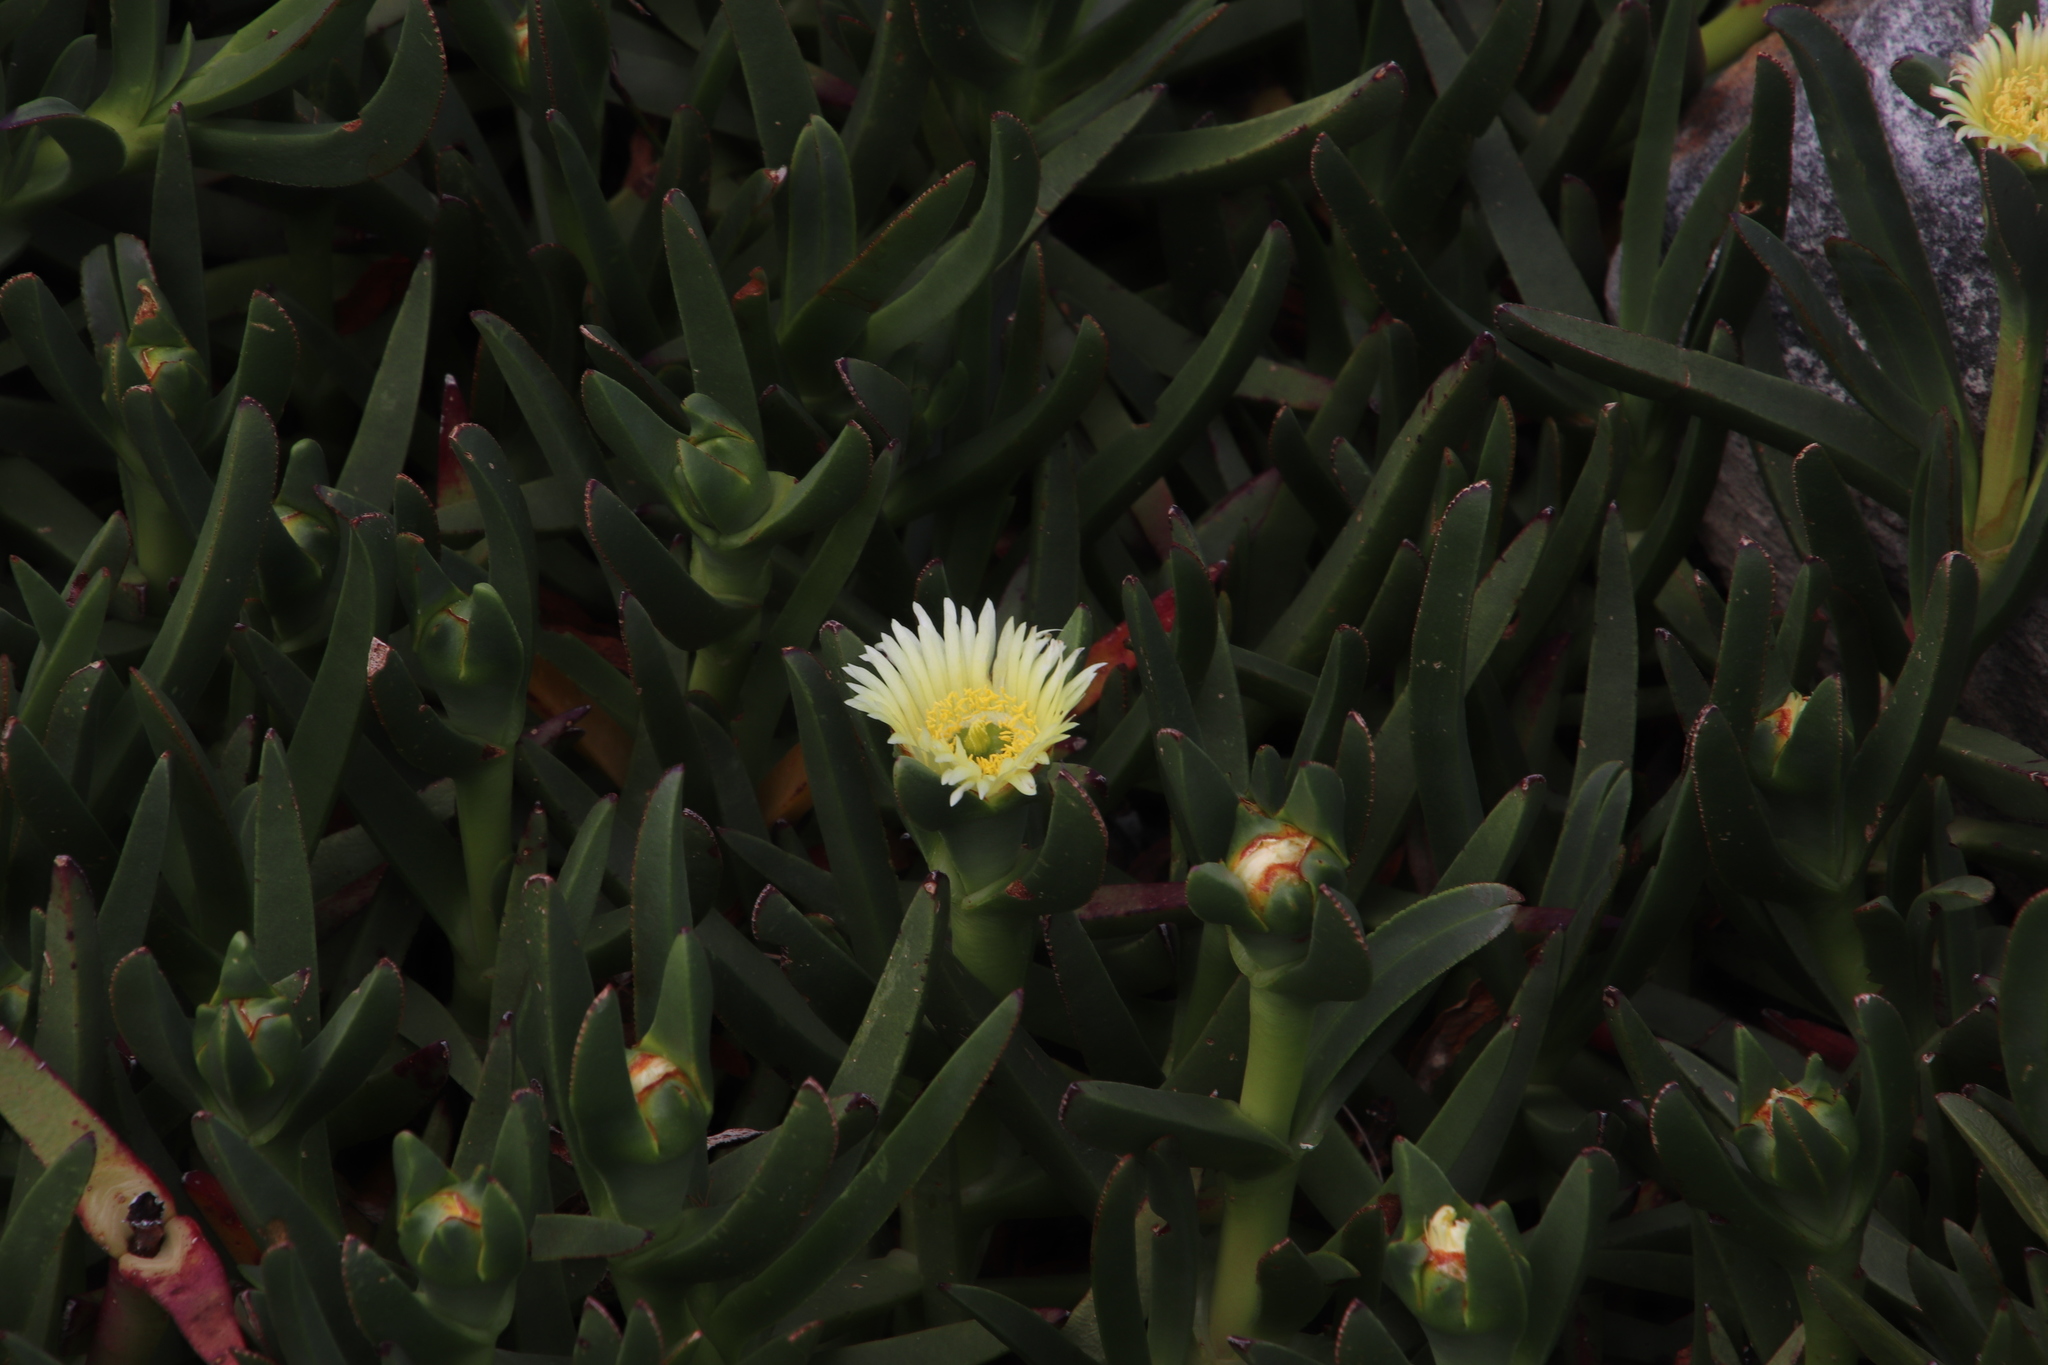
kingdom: Plantae
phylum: Tracheophyta
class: Magnoliopsida
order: Caryophyllales
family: Aizoaceae
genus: Carpobrotus
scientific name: Carpobrotus edulis
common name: Hottentot-fig
